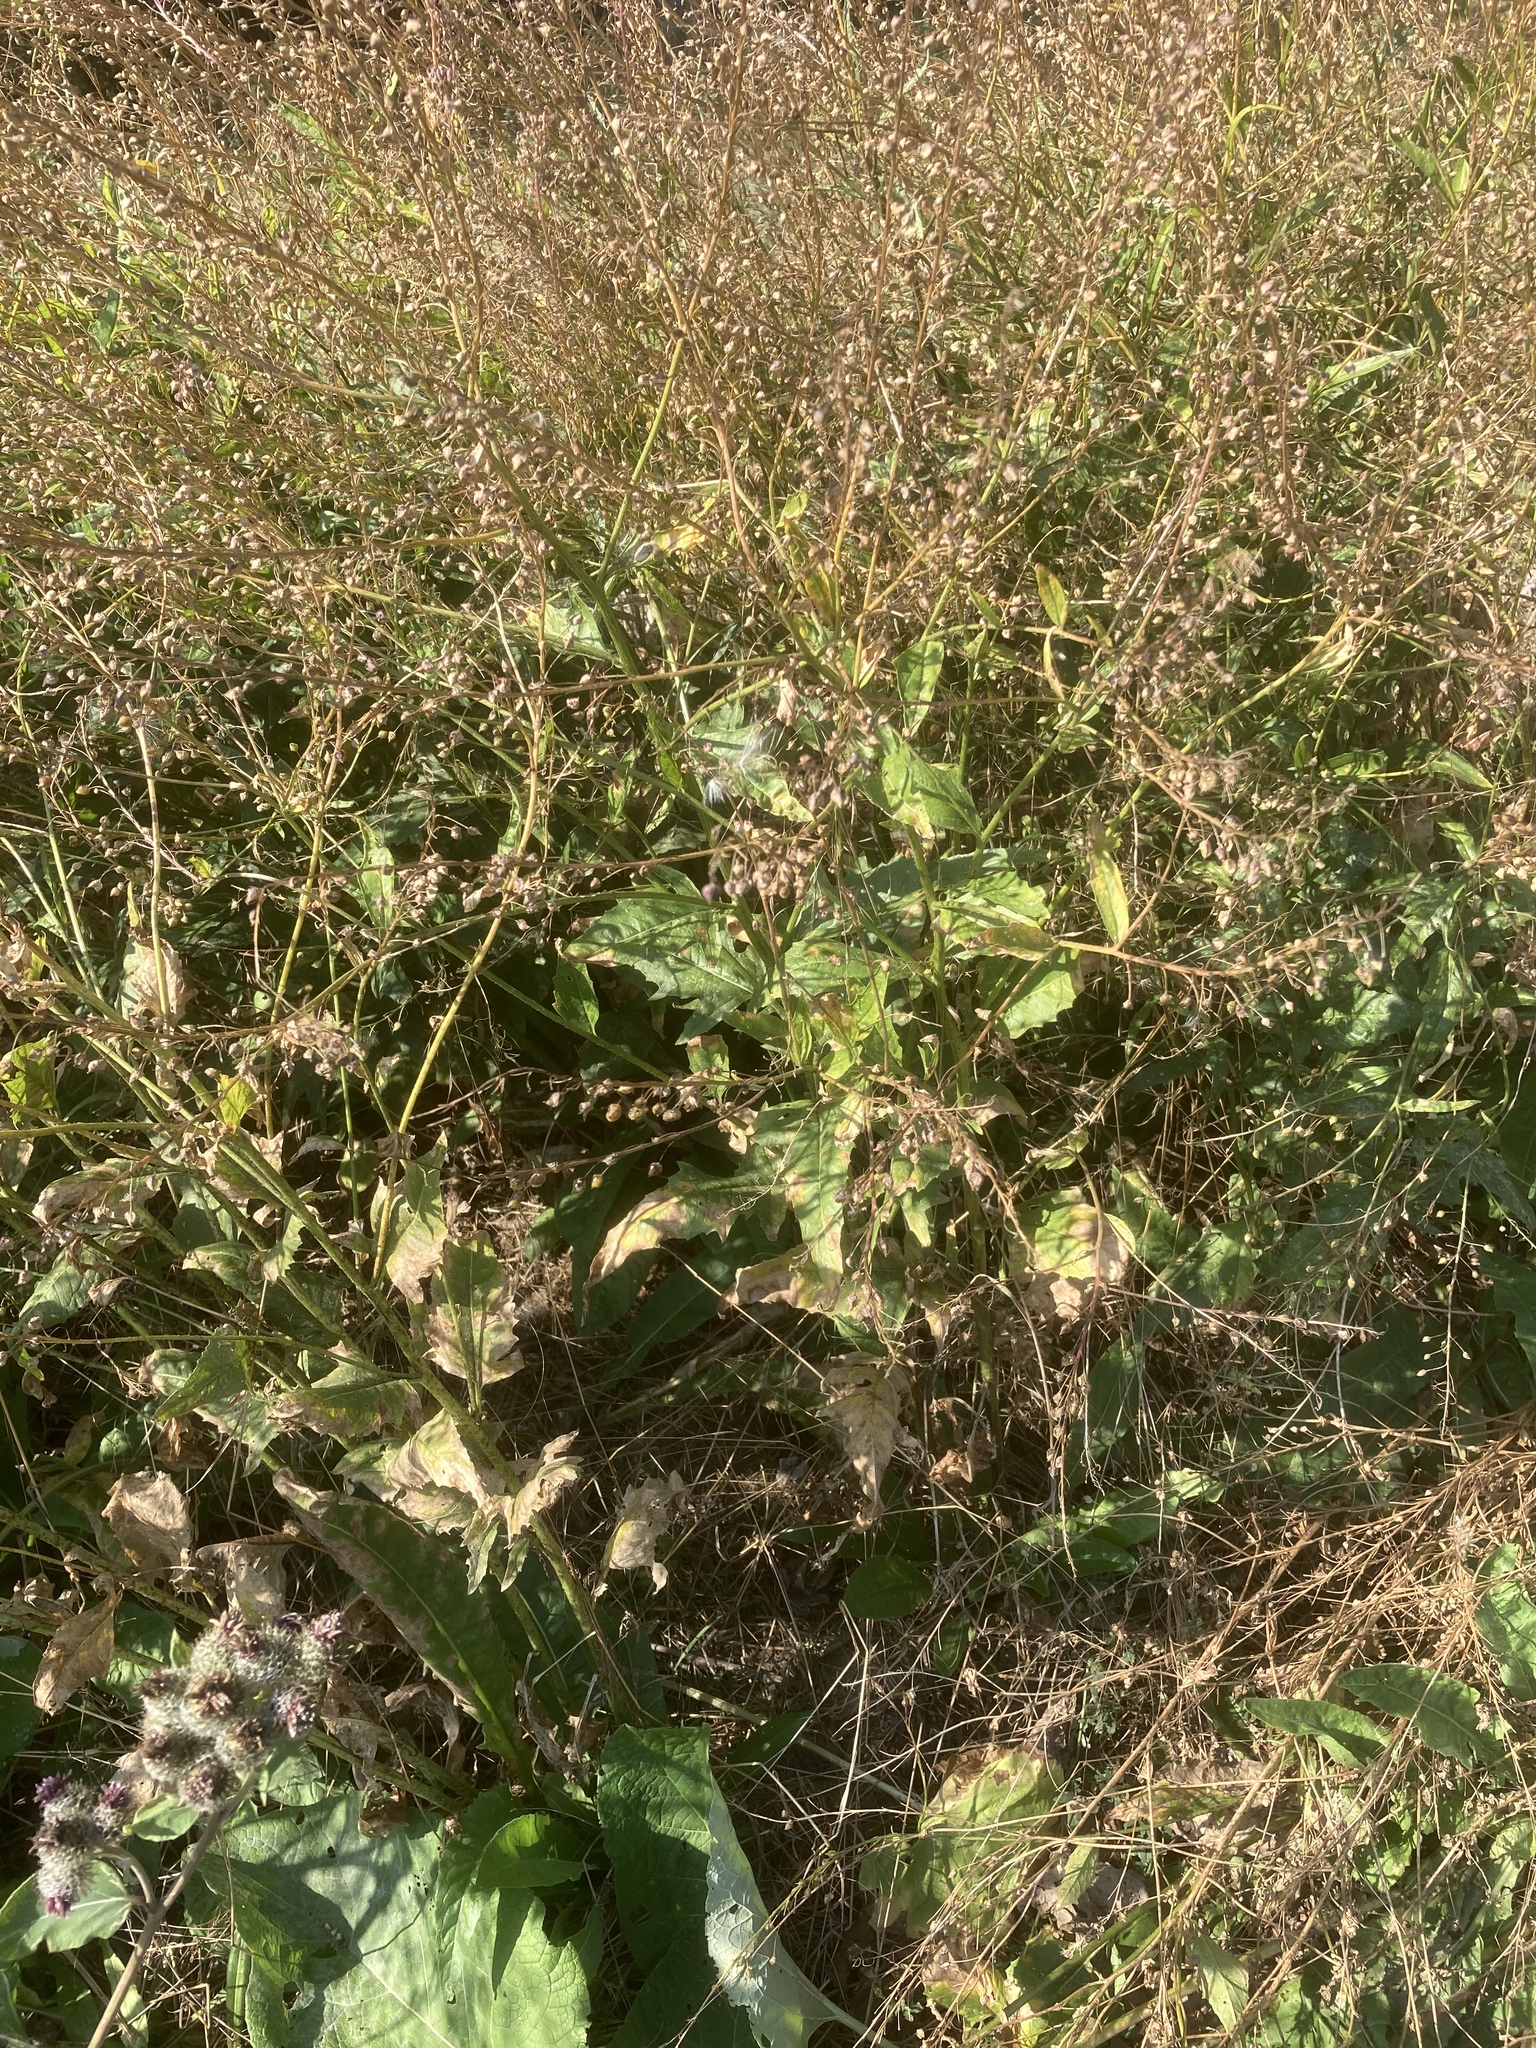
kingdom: Plantae
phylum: Tracheophyta
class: Magnoliopsida
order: Brassicales
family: Brassicaceae
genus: Bunias
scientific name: Bunias orientalis
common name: Warty-cabbage
